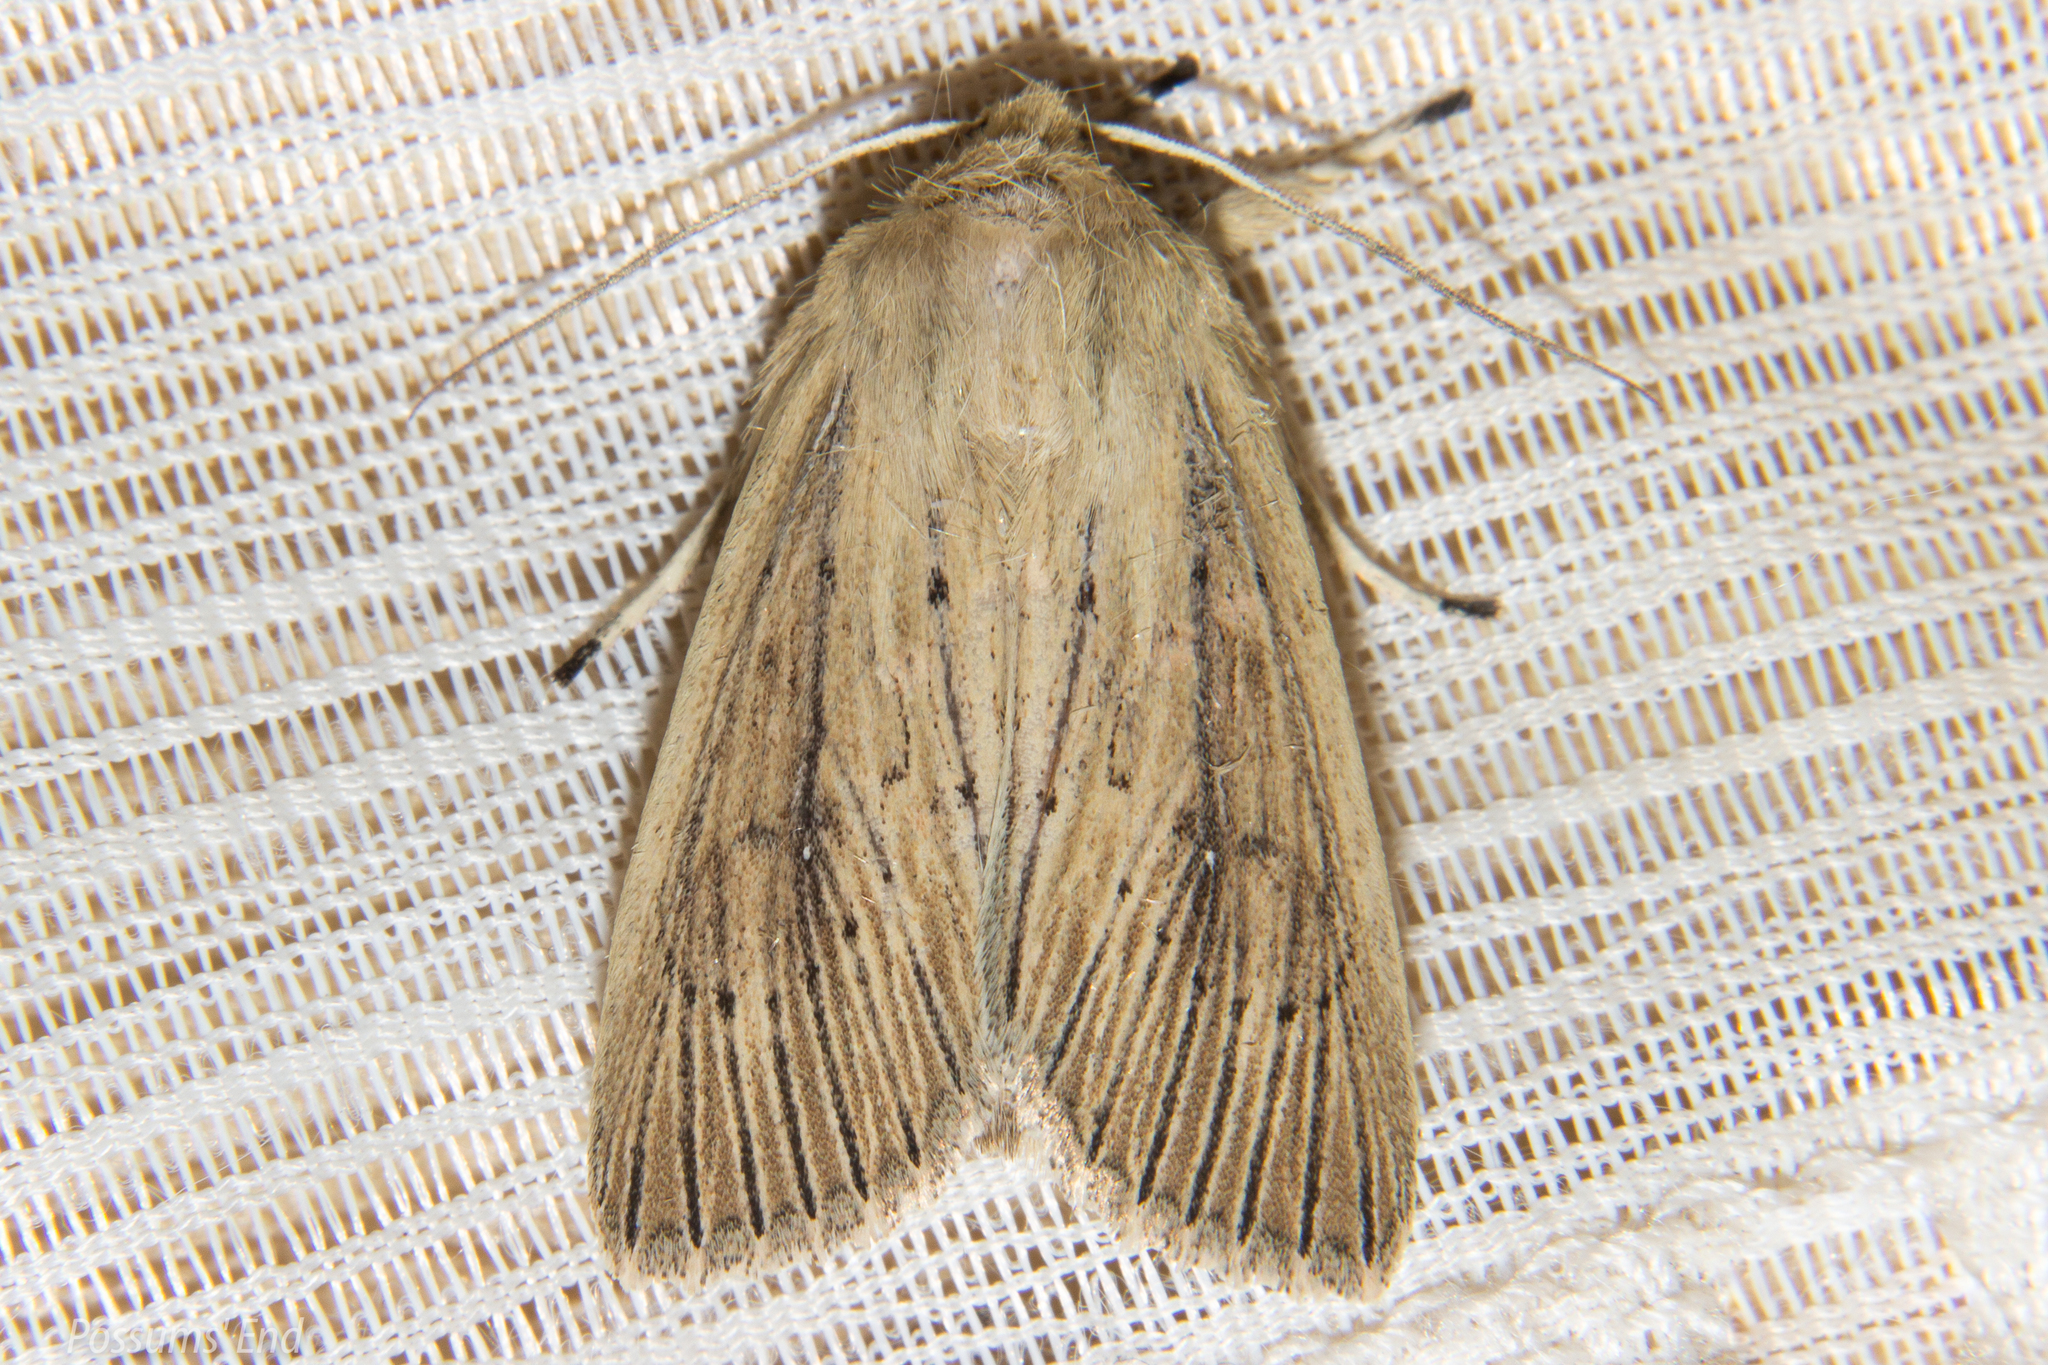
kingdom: Animalia
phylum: Arthropoda
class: Insecta
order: Lepidoptera
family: Noctuidae
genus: Ichneutica
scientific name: Ichneutica arotis
